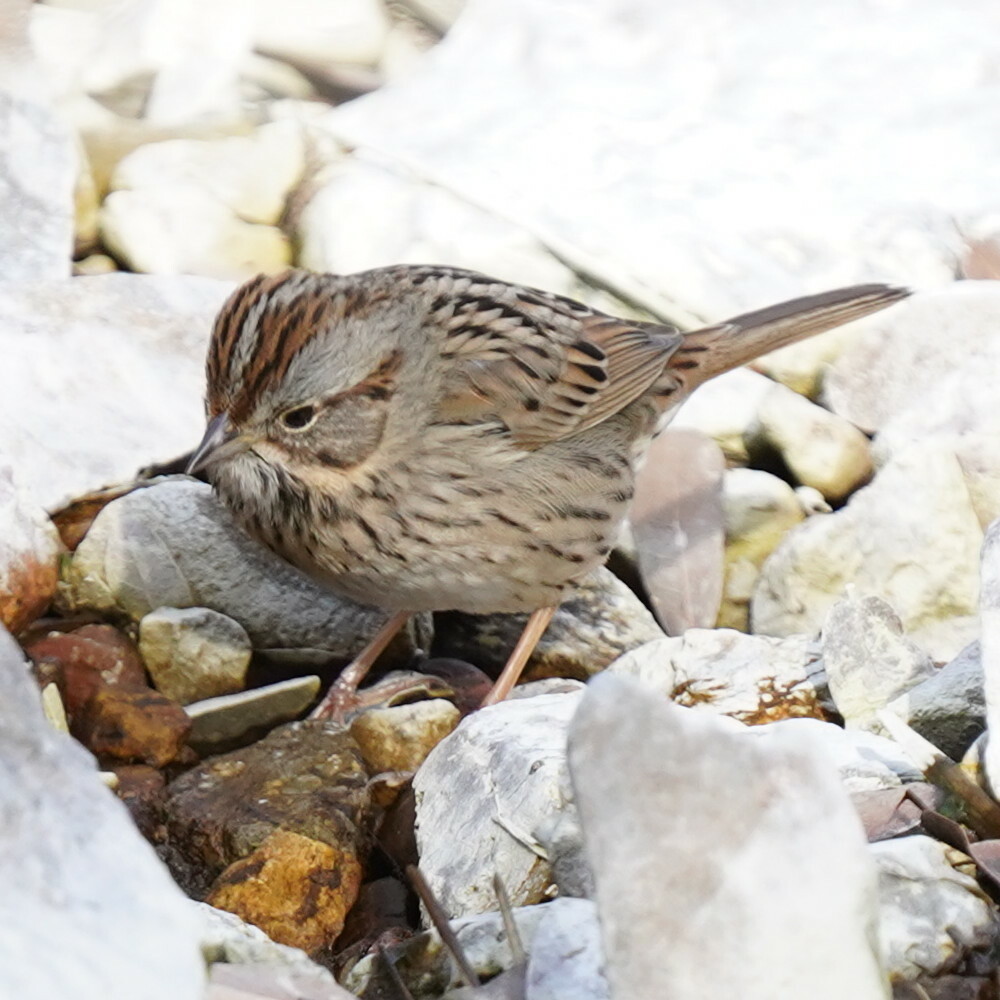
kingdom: Animalia
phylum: Chordata
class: Aves
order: Passeriformes
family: Passerellidae
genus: Melospiza
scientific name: Melospiza lincolnii
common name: Lincoln's sparrow
